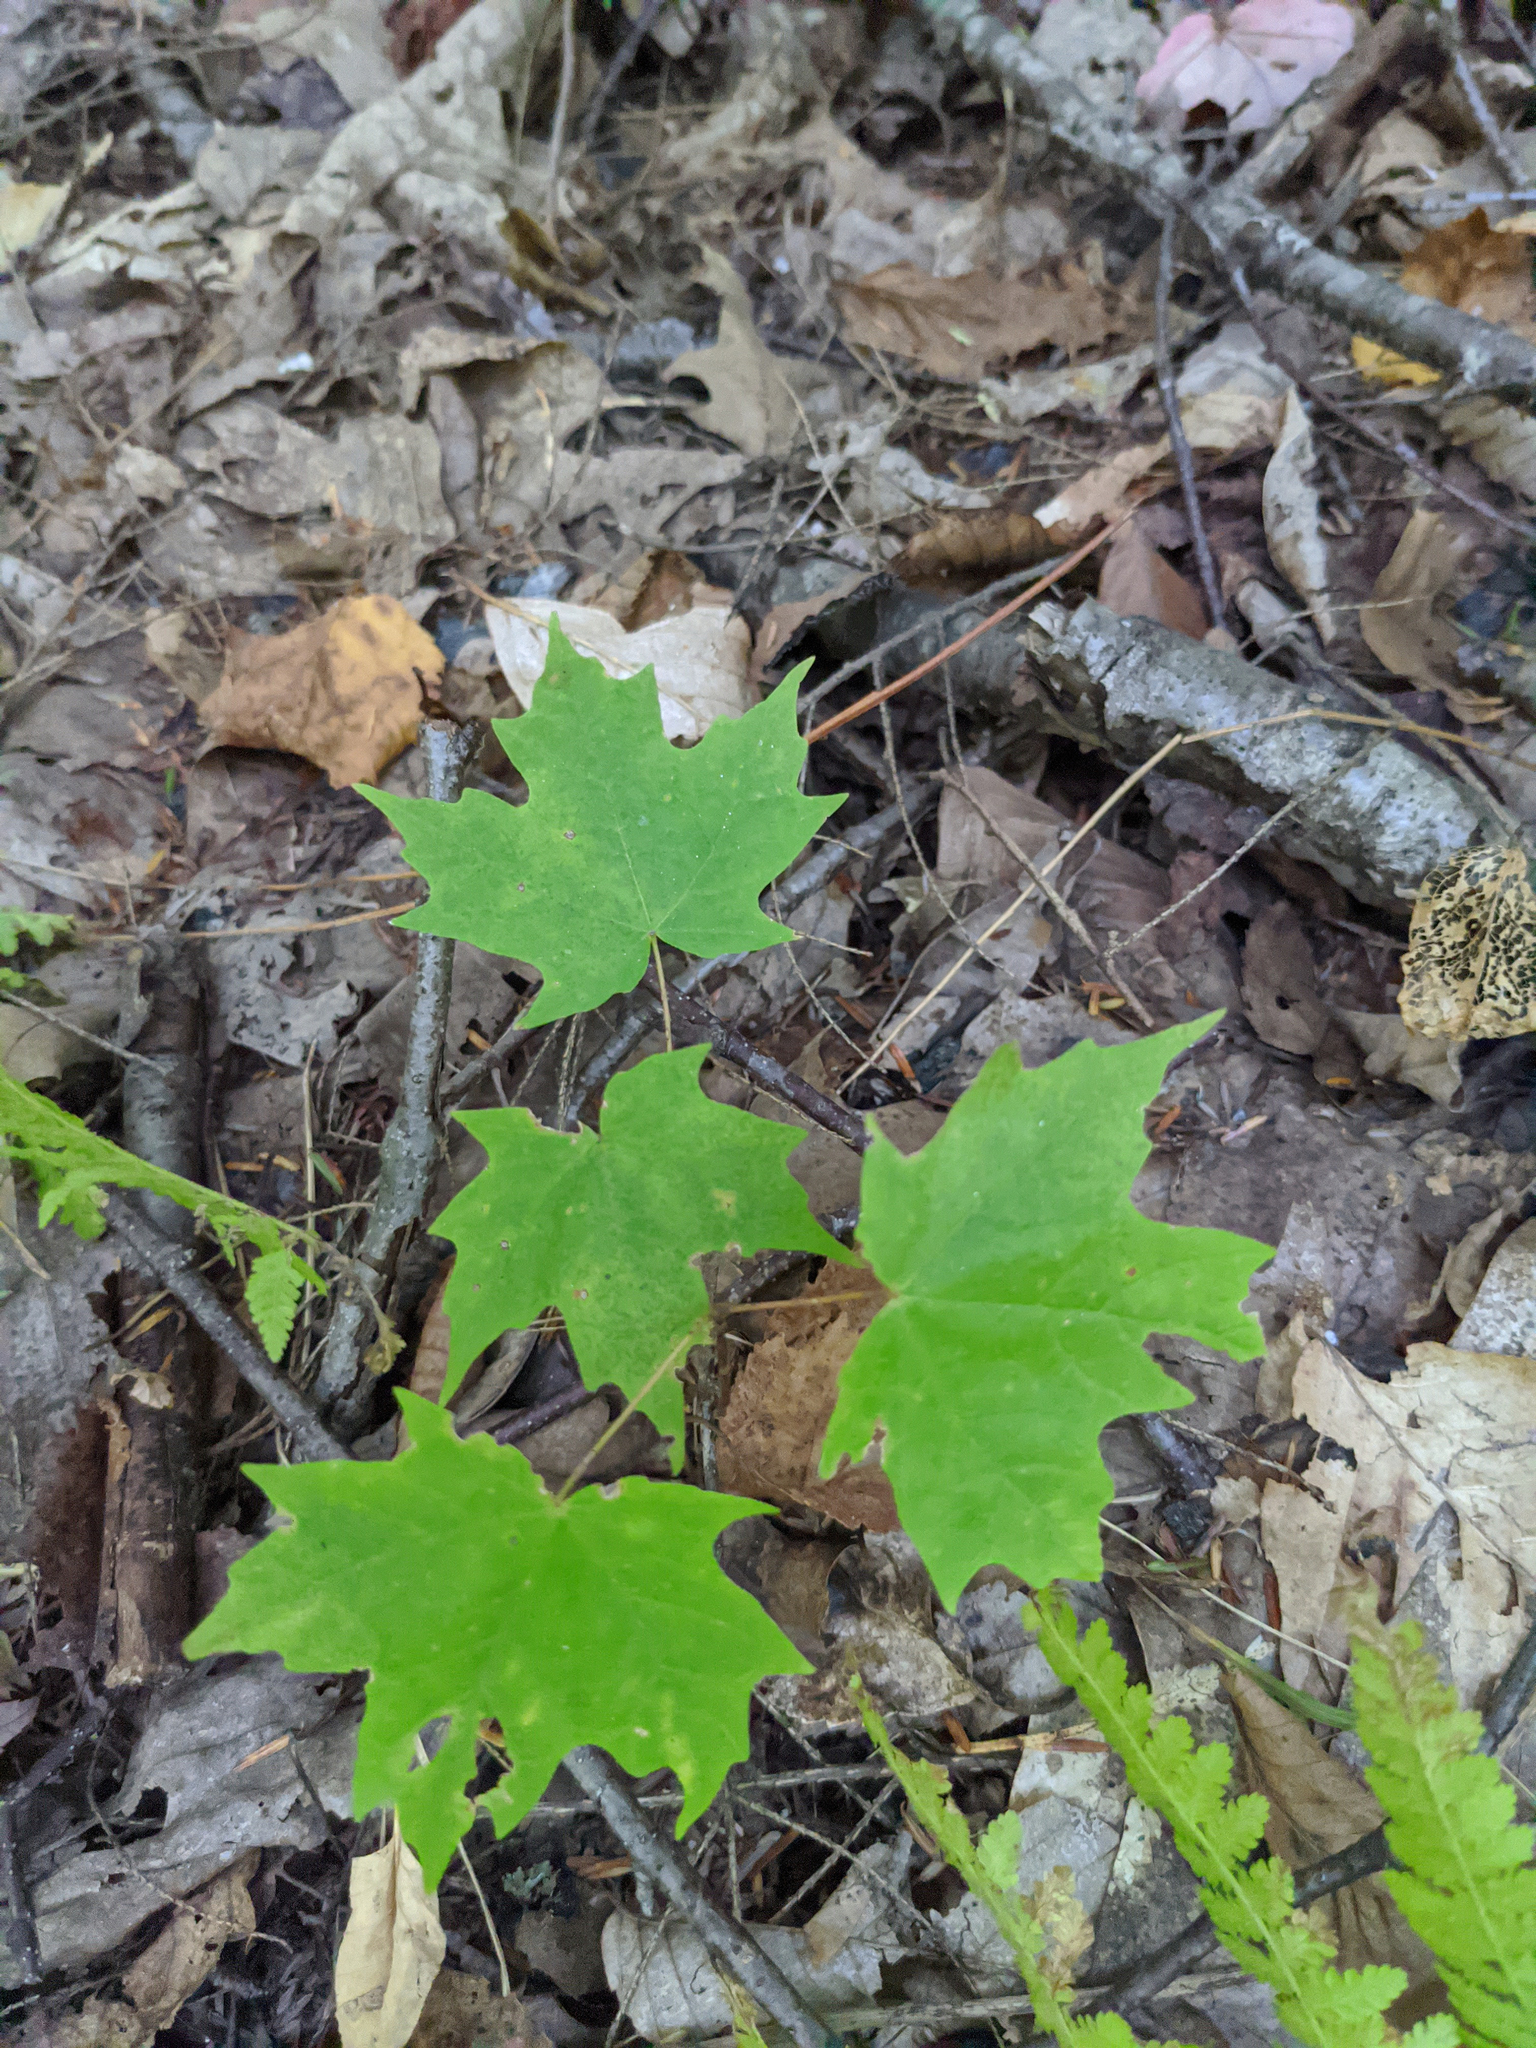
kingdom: Plantae
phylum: Tracheophyta
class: Magnoliopsida
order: Sapindales
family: Sapindaceae
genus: Acer
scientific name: Acer saccharum
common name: Sugar maple
